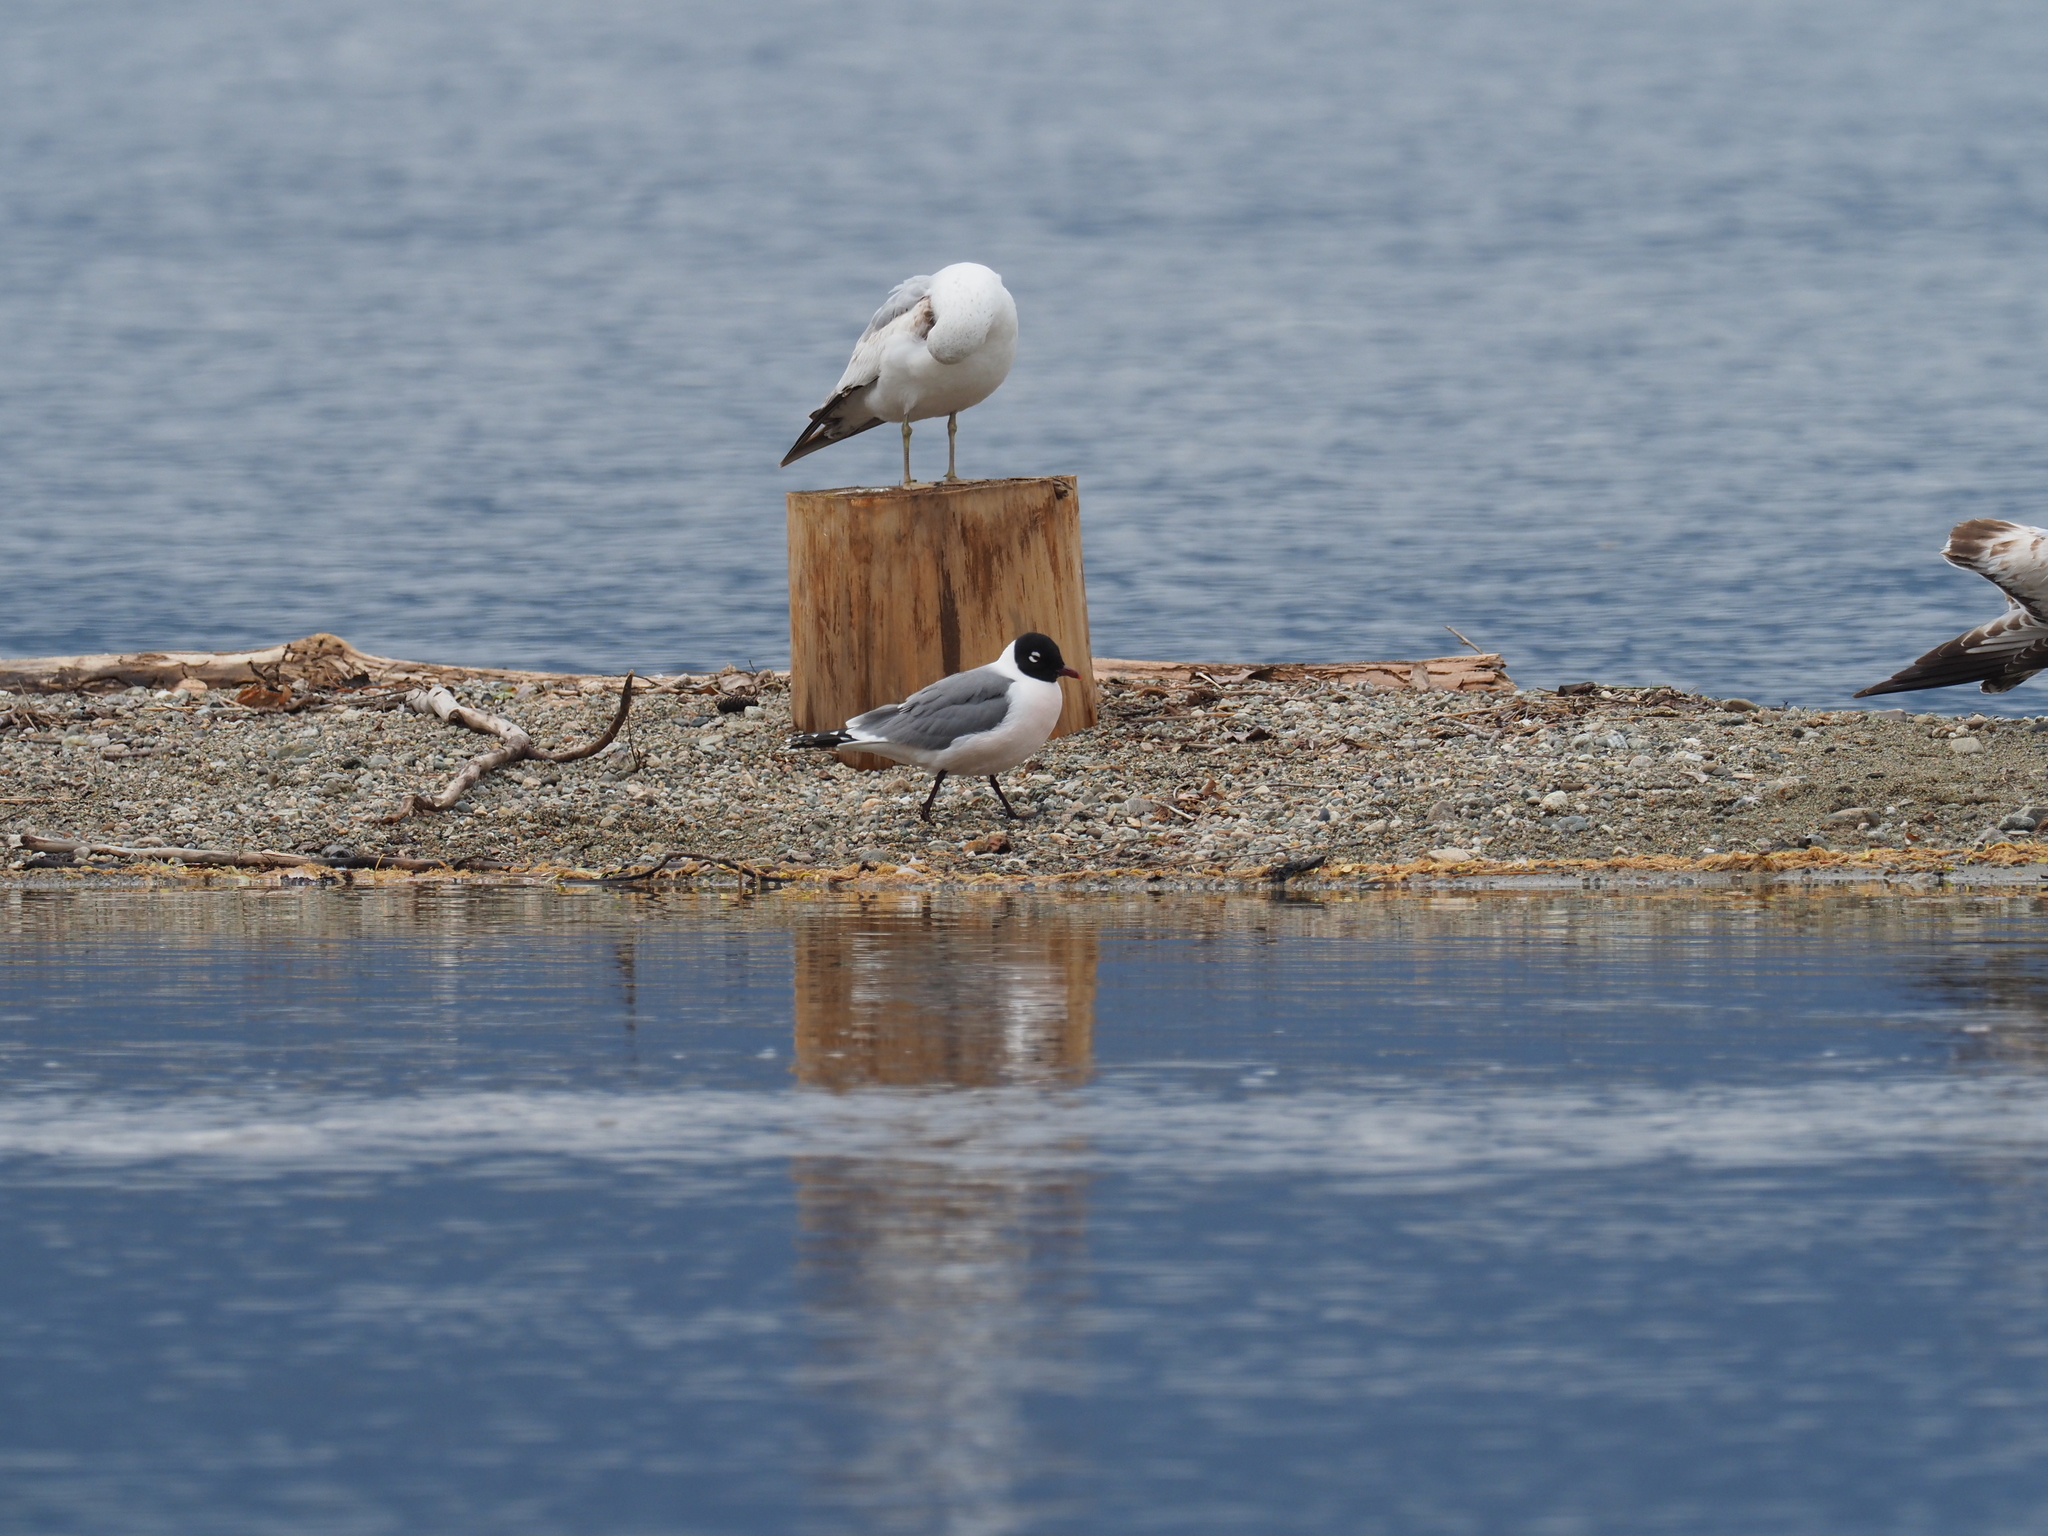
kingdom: Animalia
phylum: Chordata
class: Aves
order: Charadriiformes
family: Laridae
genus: Leucophaeus
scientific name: Leucophaeus pipixcan
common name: Franklin's gull
